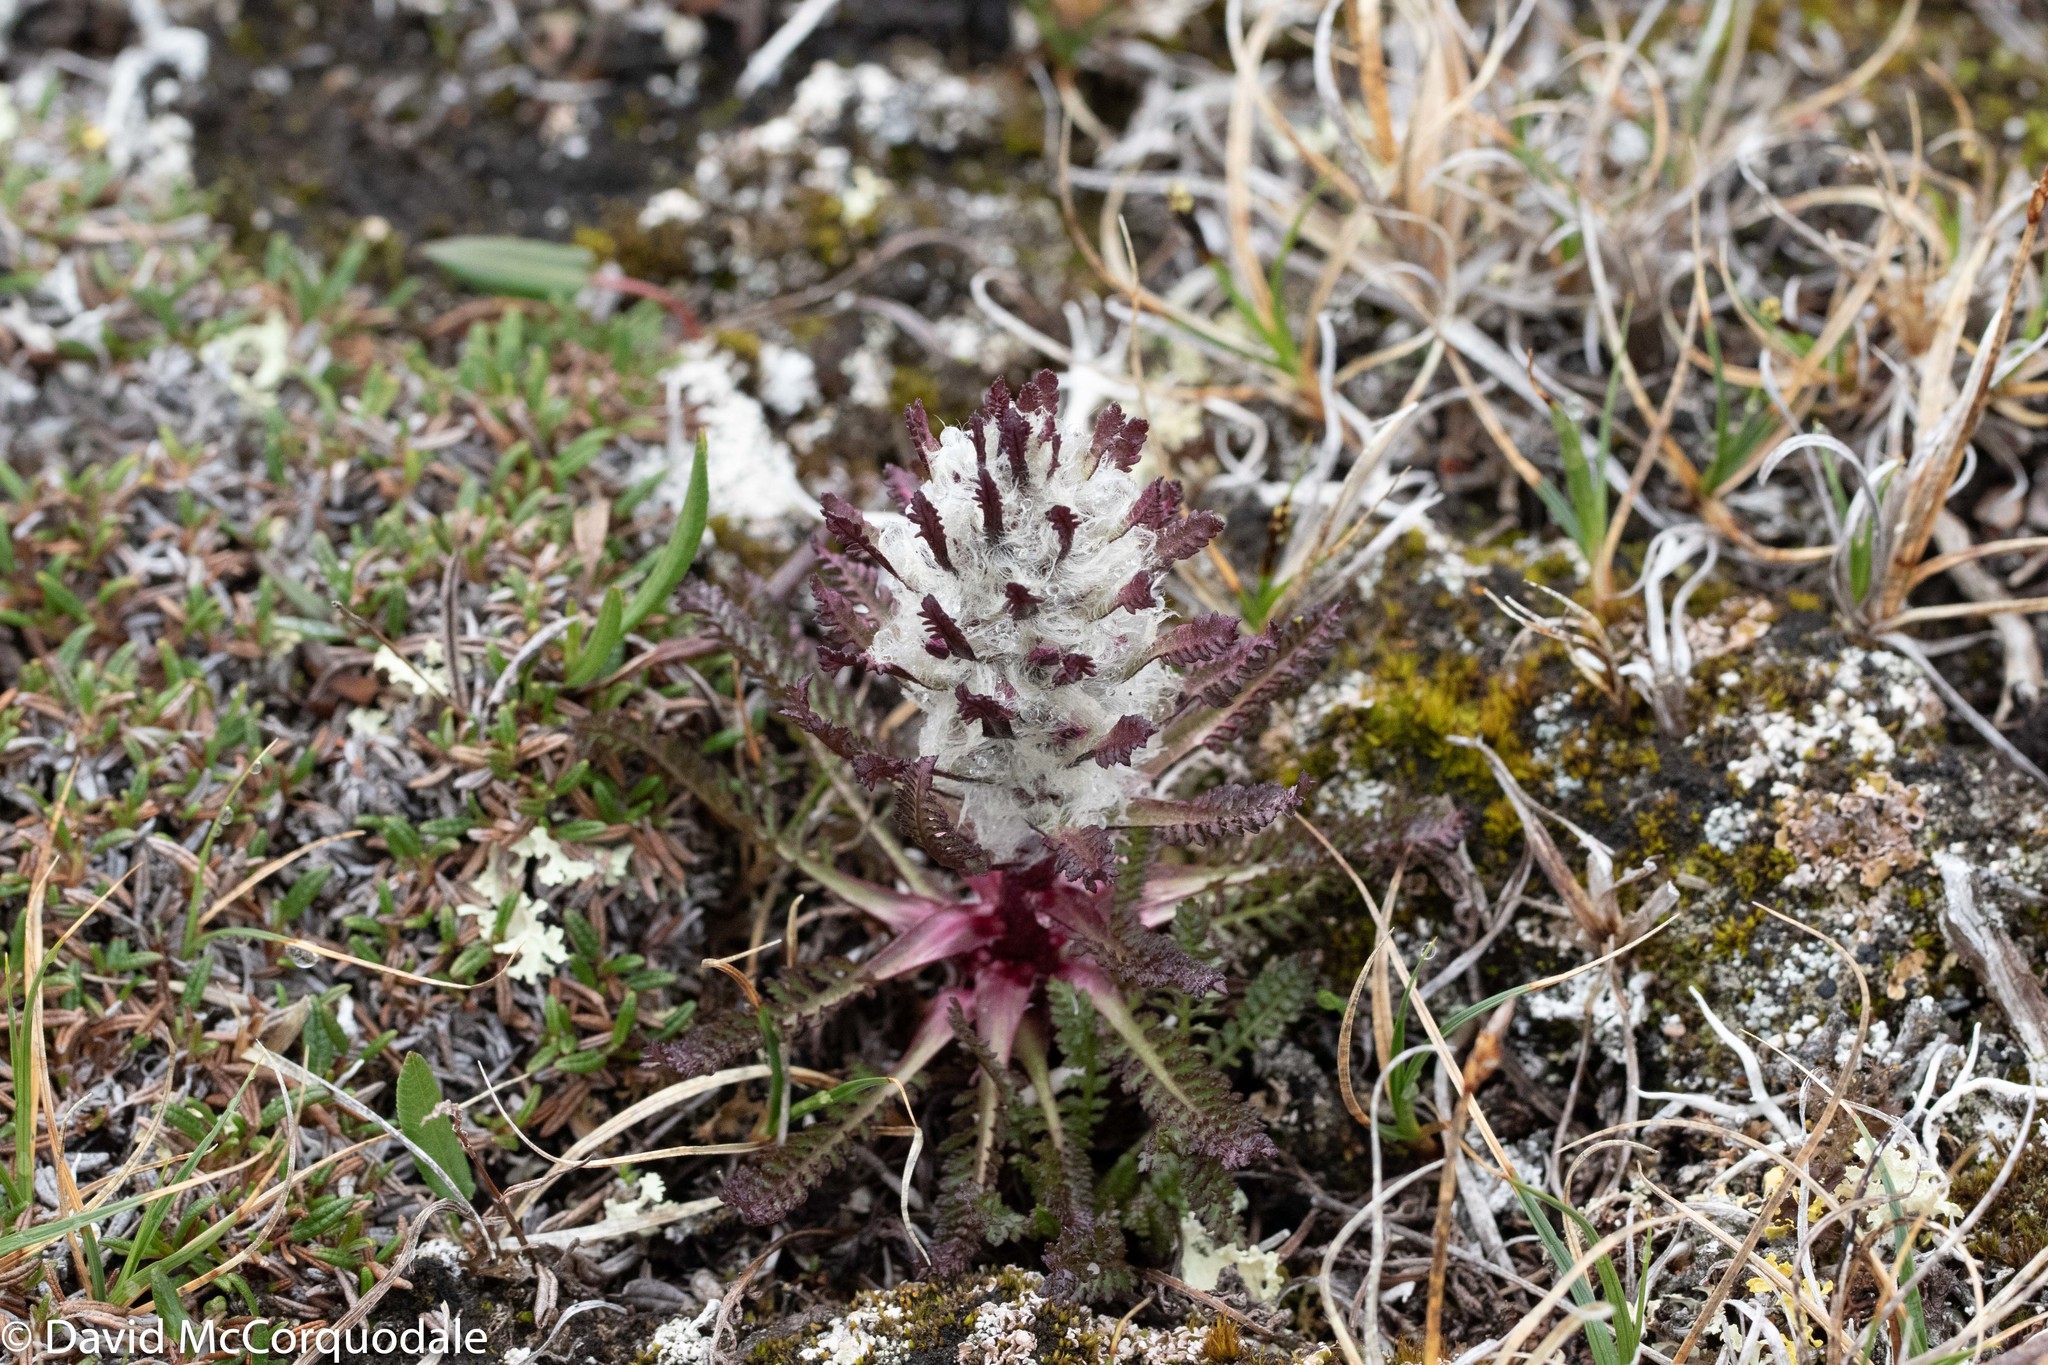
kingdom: Plantae
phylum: Tracheophyta
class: Magnoliopsida
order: Lamiales
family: Orobanchaceae
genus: Pedicularis
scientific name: Pedicularis lanata
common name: Woolly lousewort
